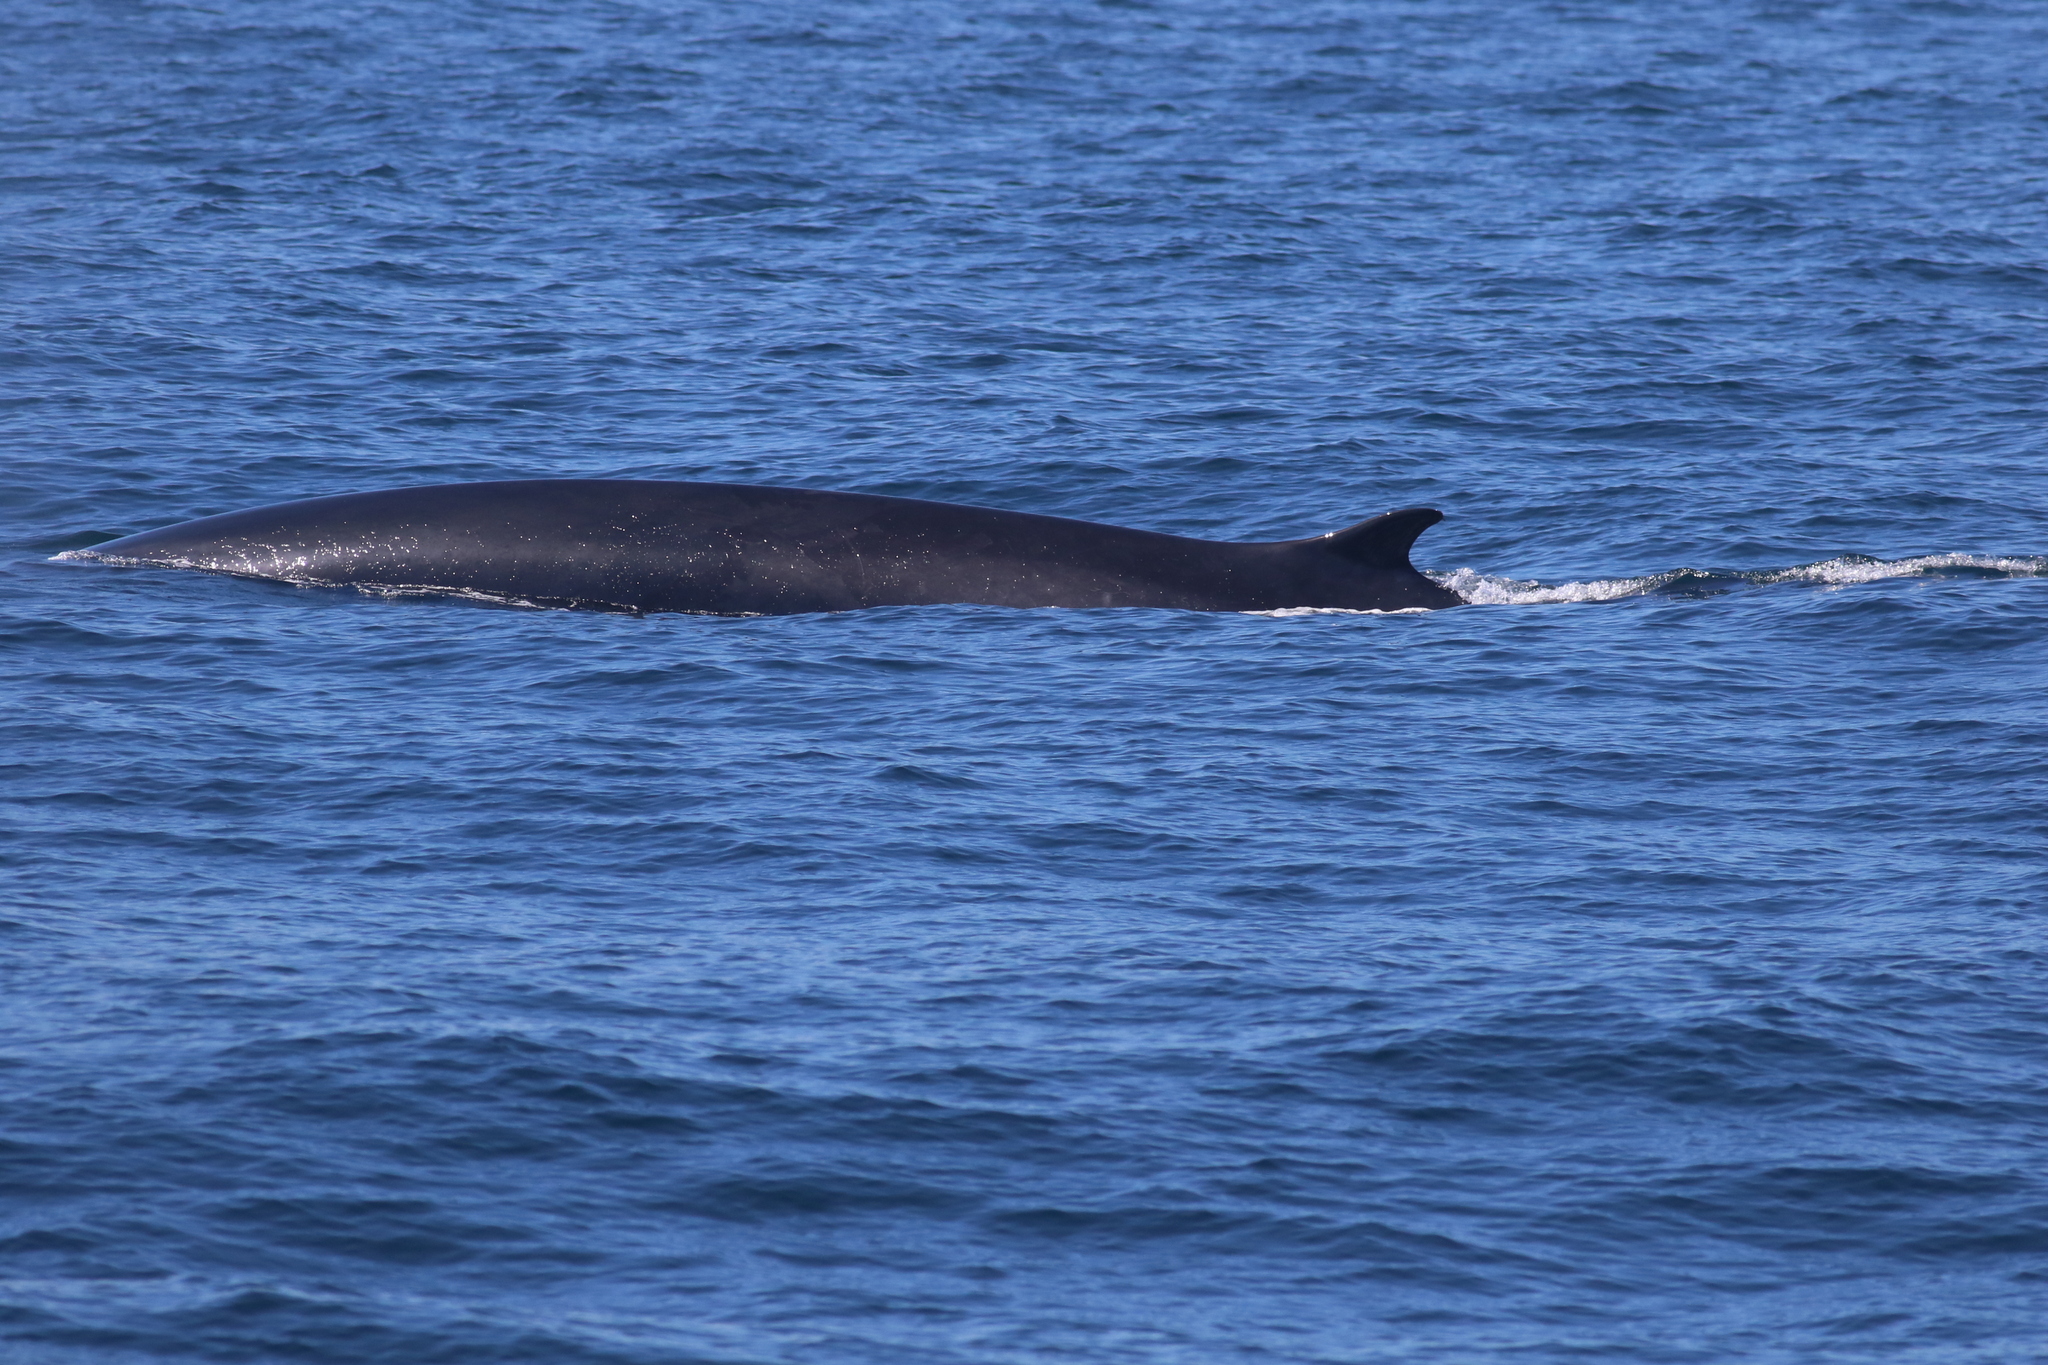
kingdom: Animalia
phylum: Chordata
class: Mammalia
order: Cetacea
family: Balaenopteridae
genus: Balaenoptera
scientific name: Balaenoptera physalus
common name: Fin whale
